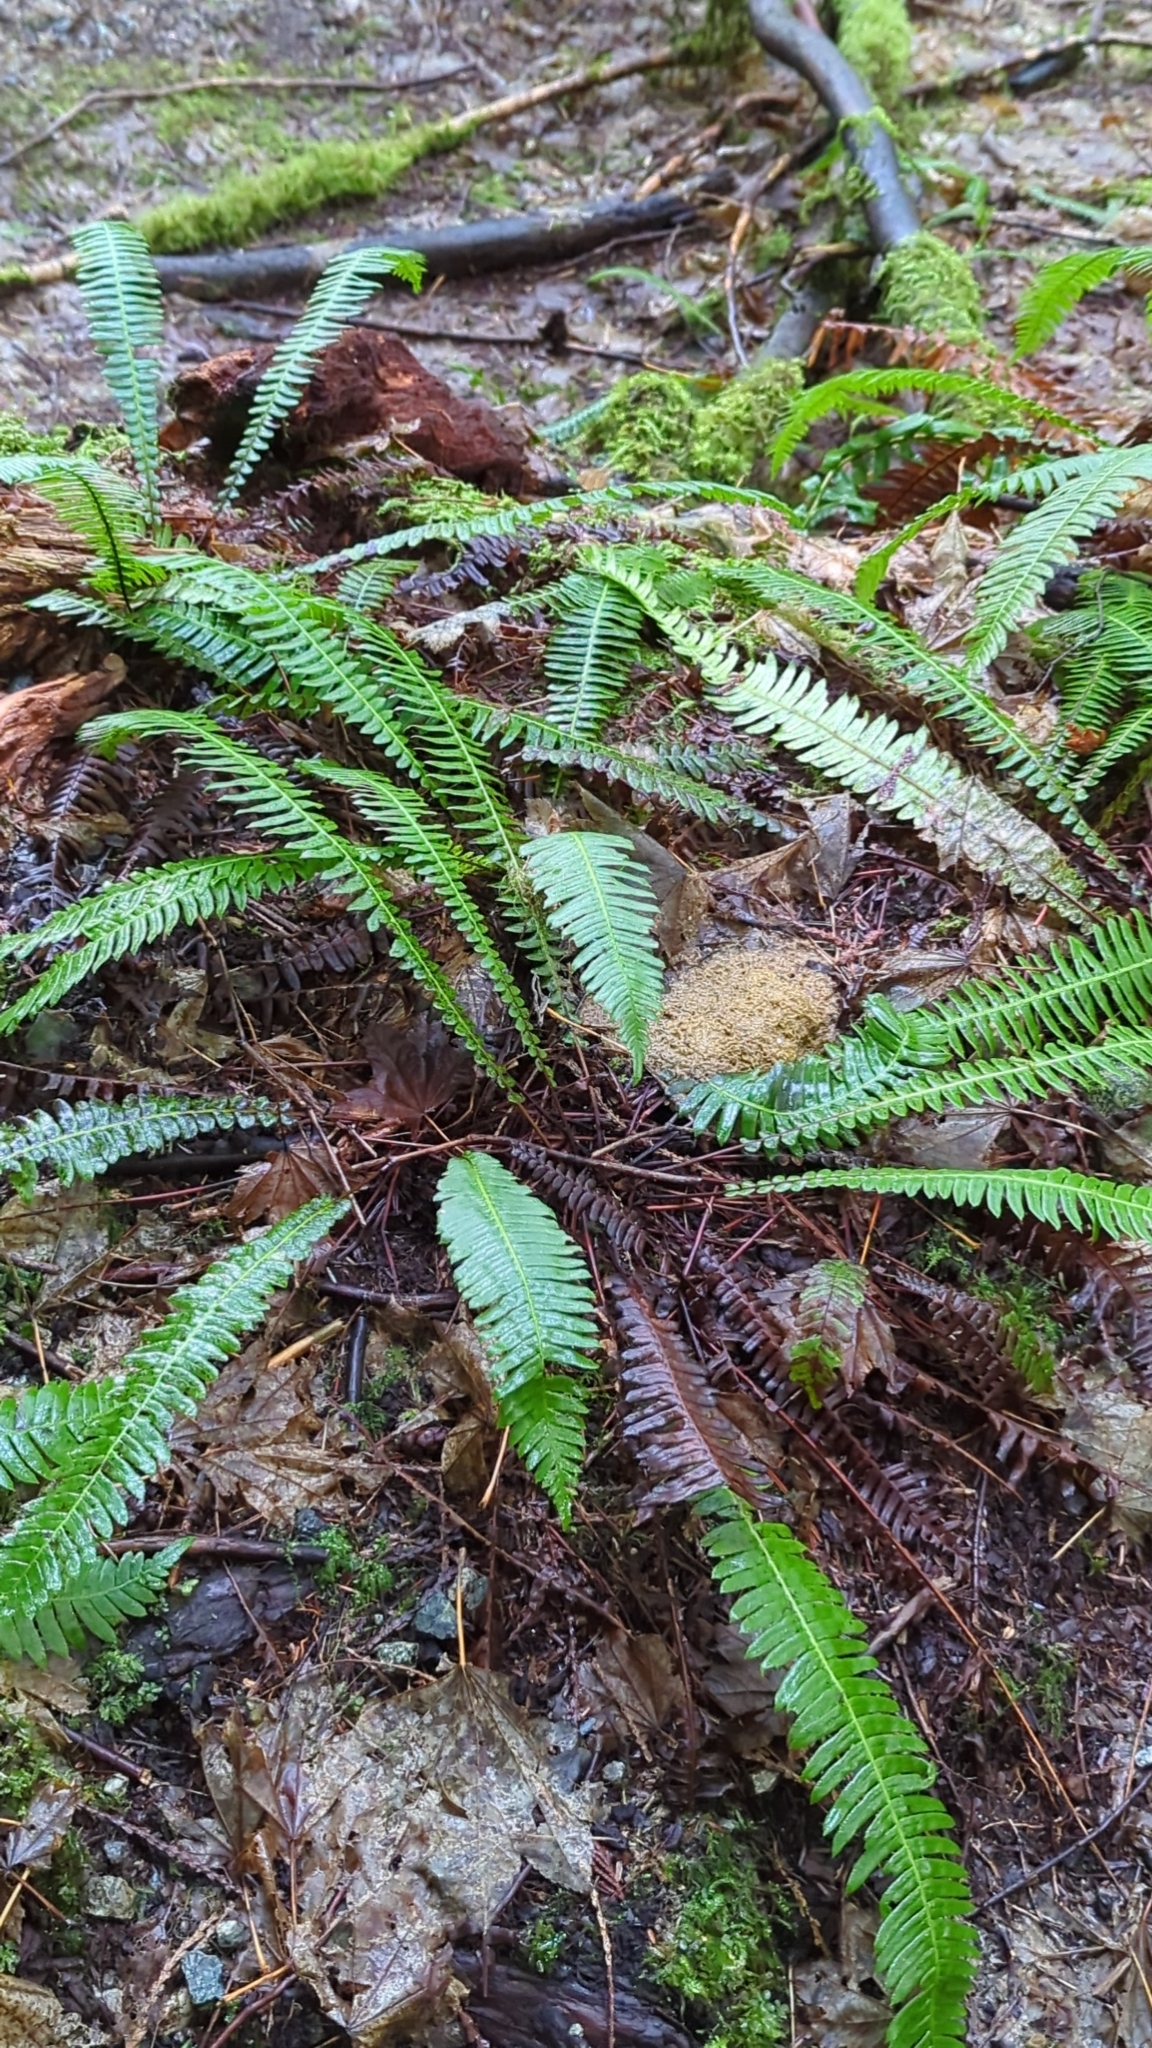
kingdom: Plantae
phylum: Tracheophyta
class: Polypodiopsida
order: Polypodiales
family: Blechnaceae
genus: Struthiopteris
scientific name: Struthiopteris spicant
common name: Deer fern
